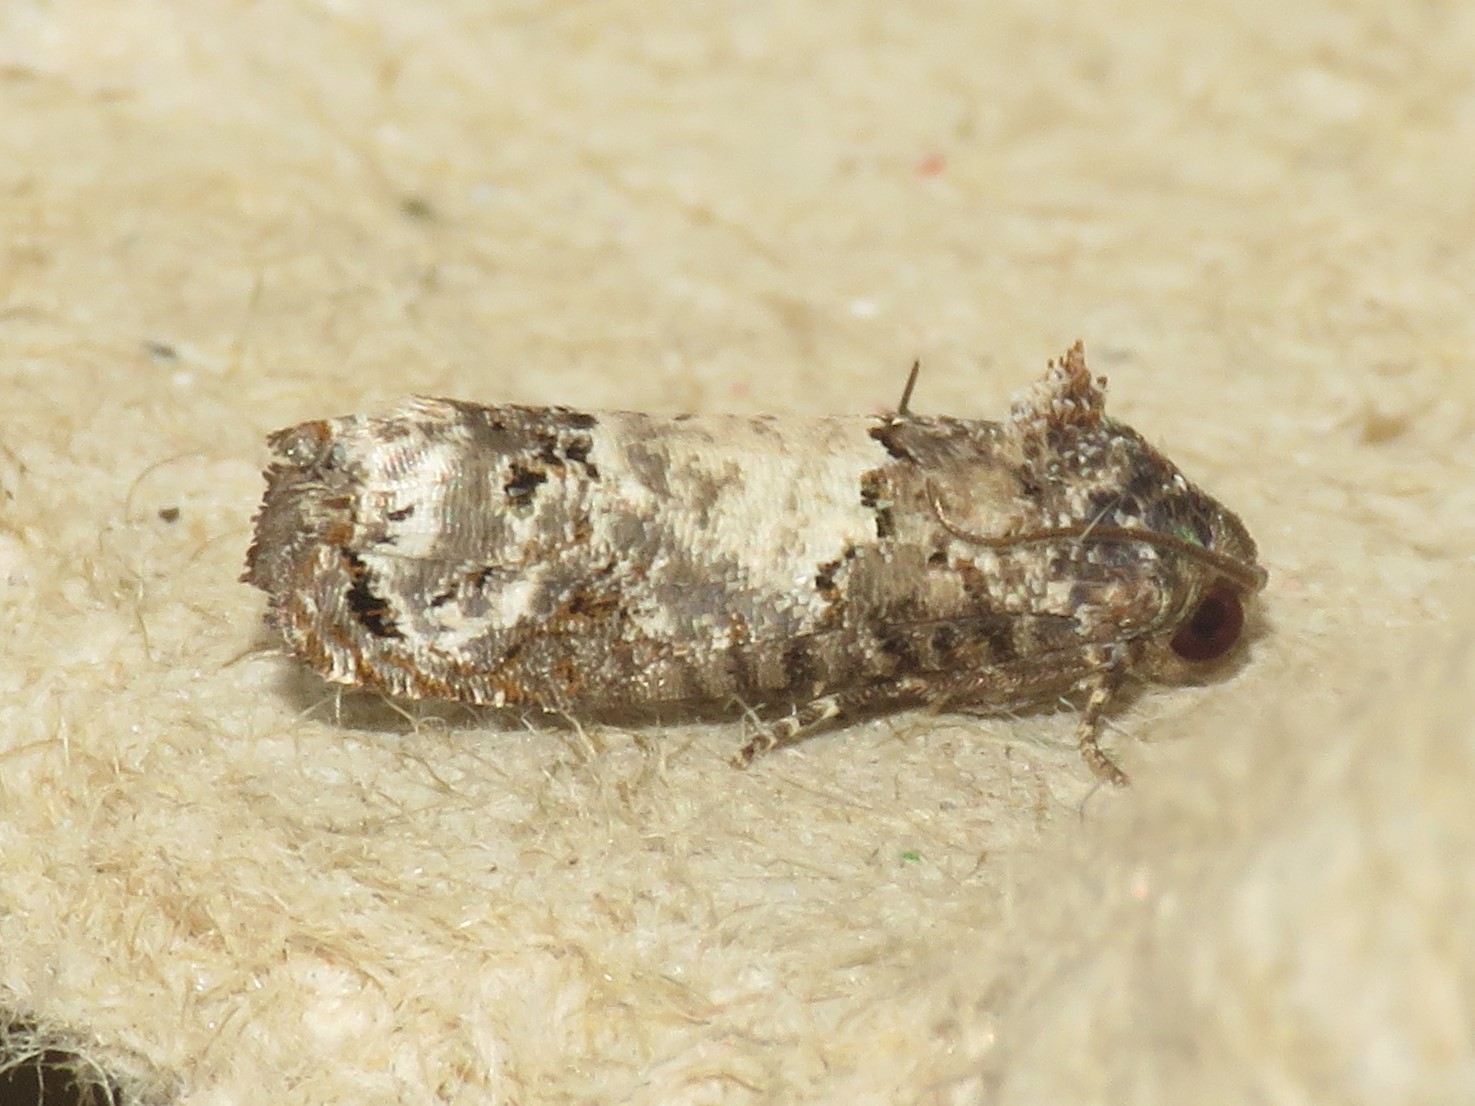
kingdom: Animalia
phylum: Arthropoda
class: Insecta
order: Lepidoptera
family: Tortricidae
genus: Epiblema
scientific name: Epiblema carolinana
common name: Gray-blotched epiblema moth
